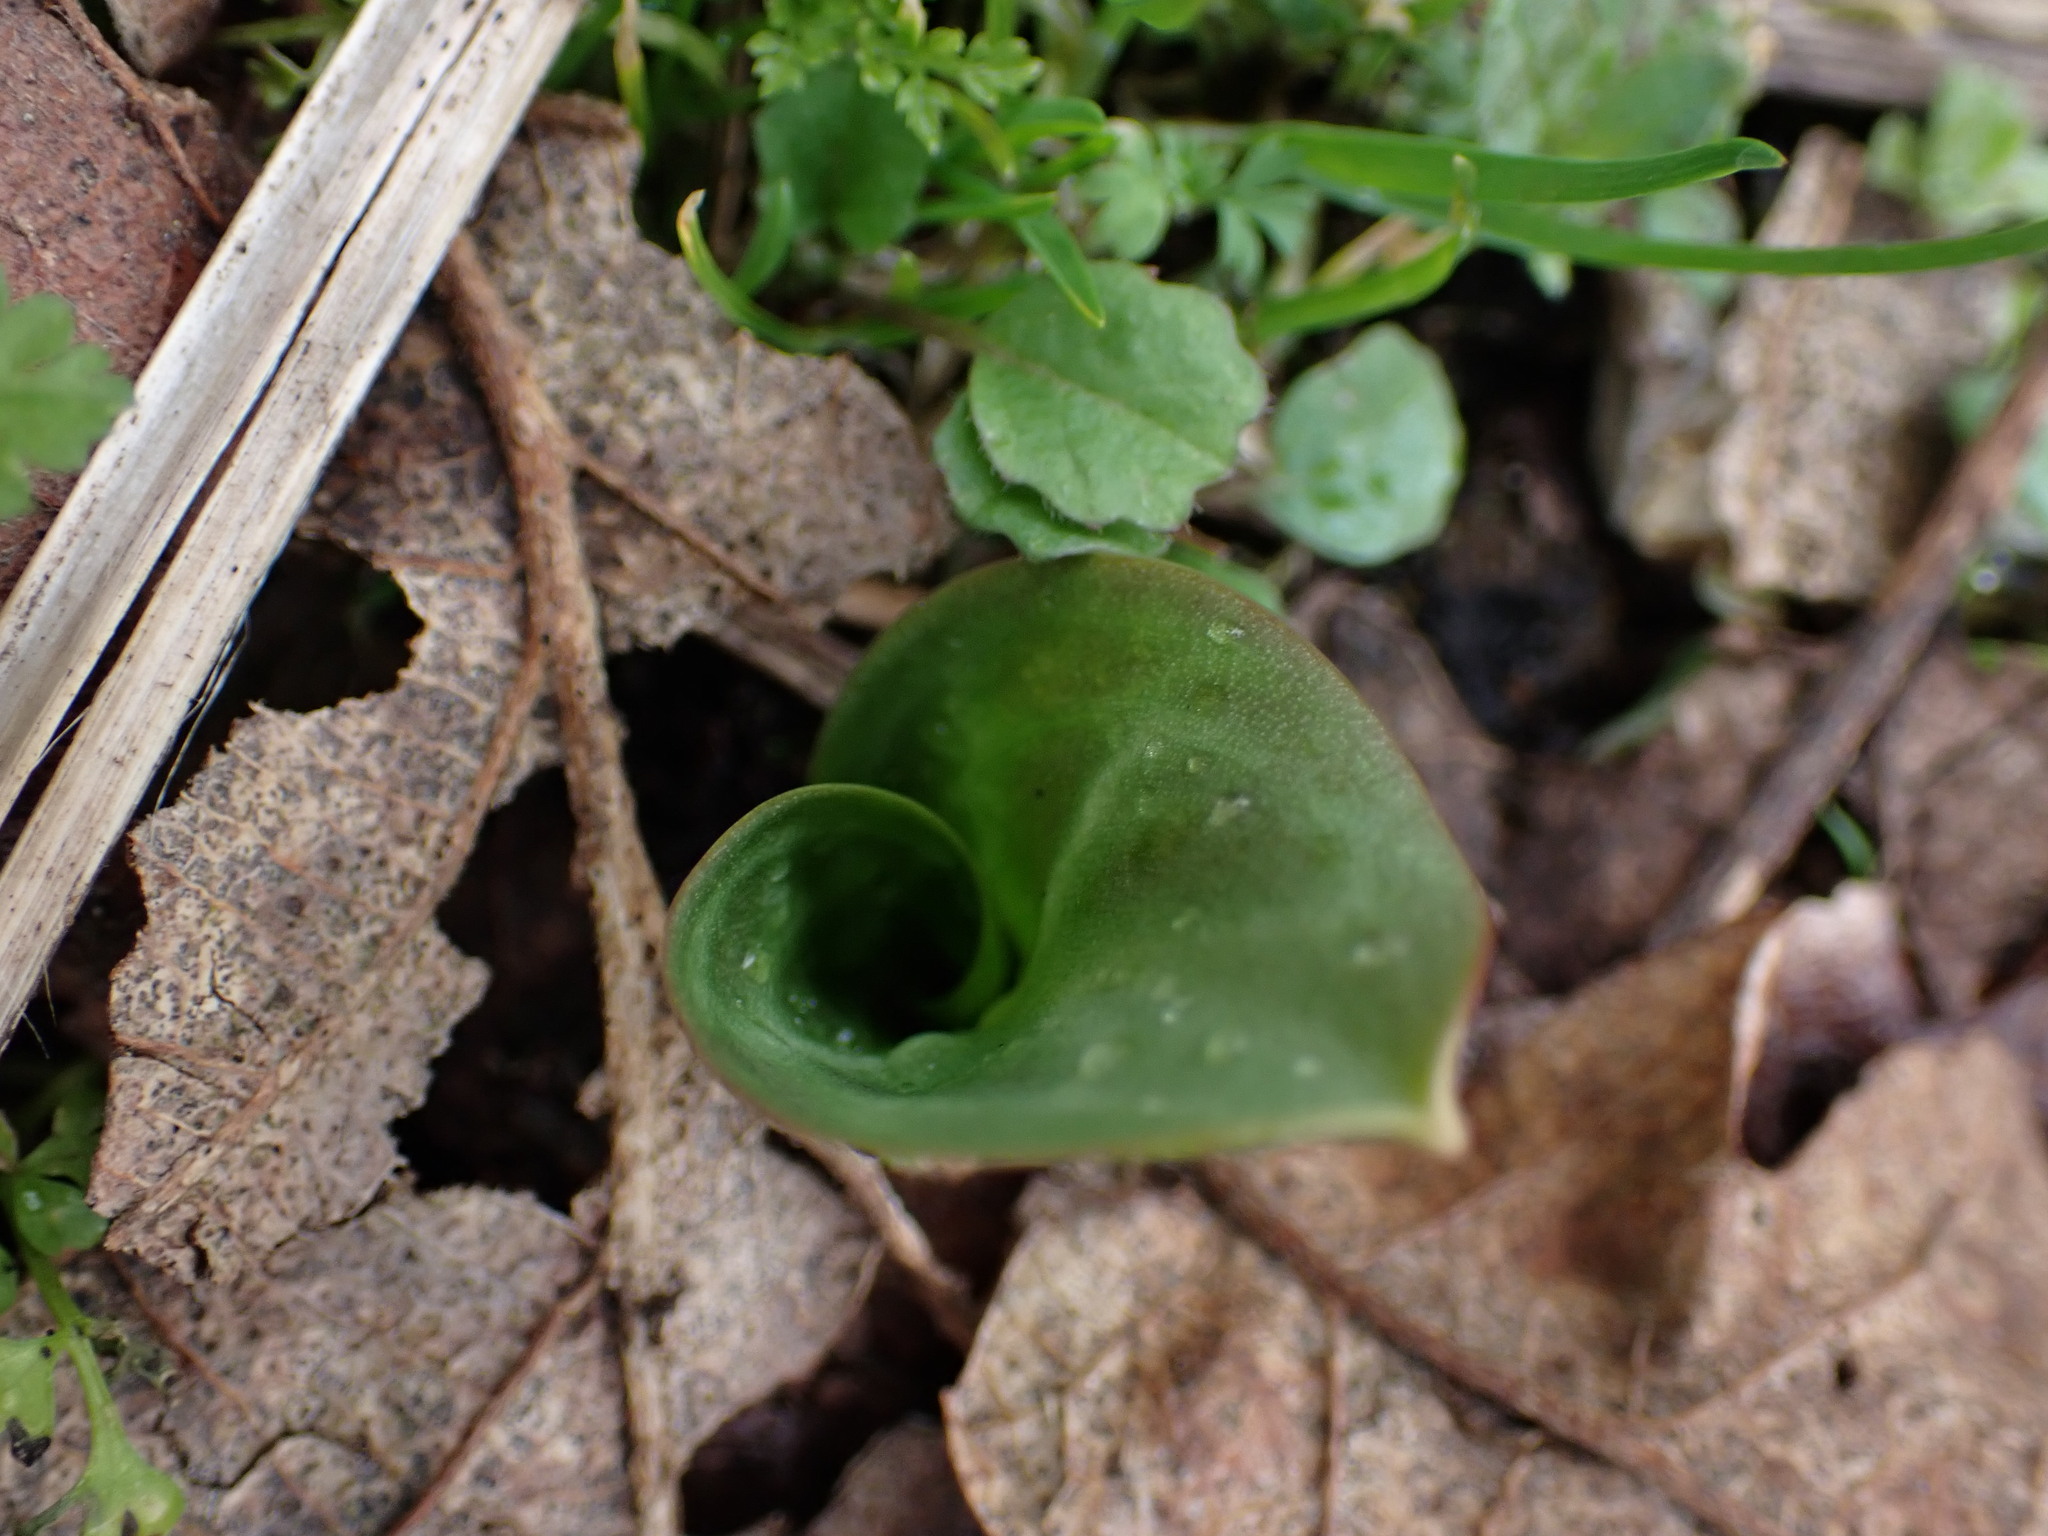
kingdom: Plantae
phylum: Tracheophyta
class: Liliopsida
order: Liliales
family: Liliaceae
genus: Erythronium
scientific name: Erythronium oregonum
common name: Giant adder's-tongue
